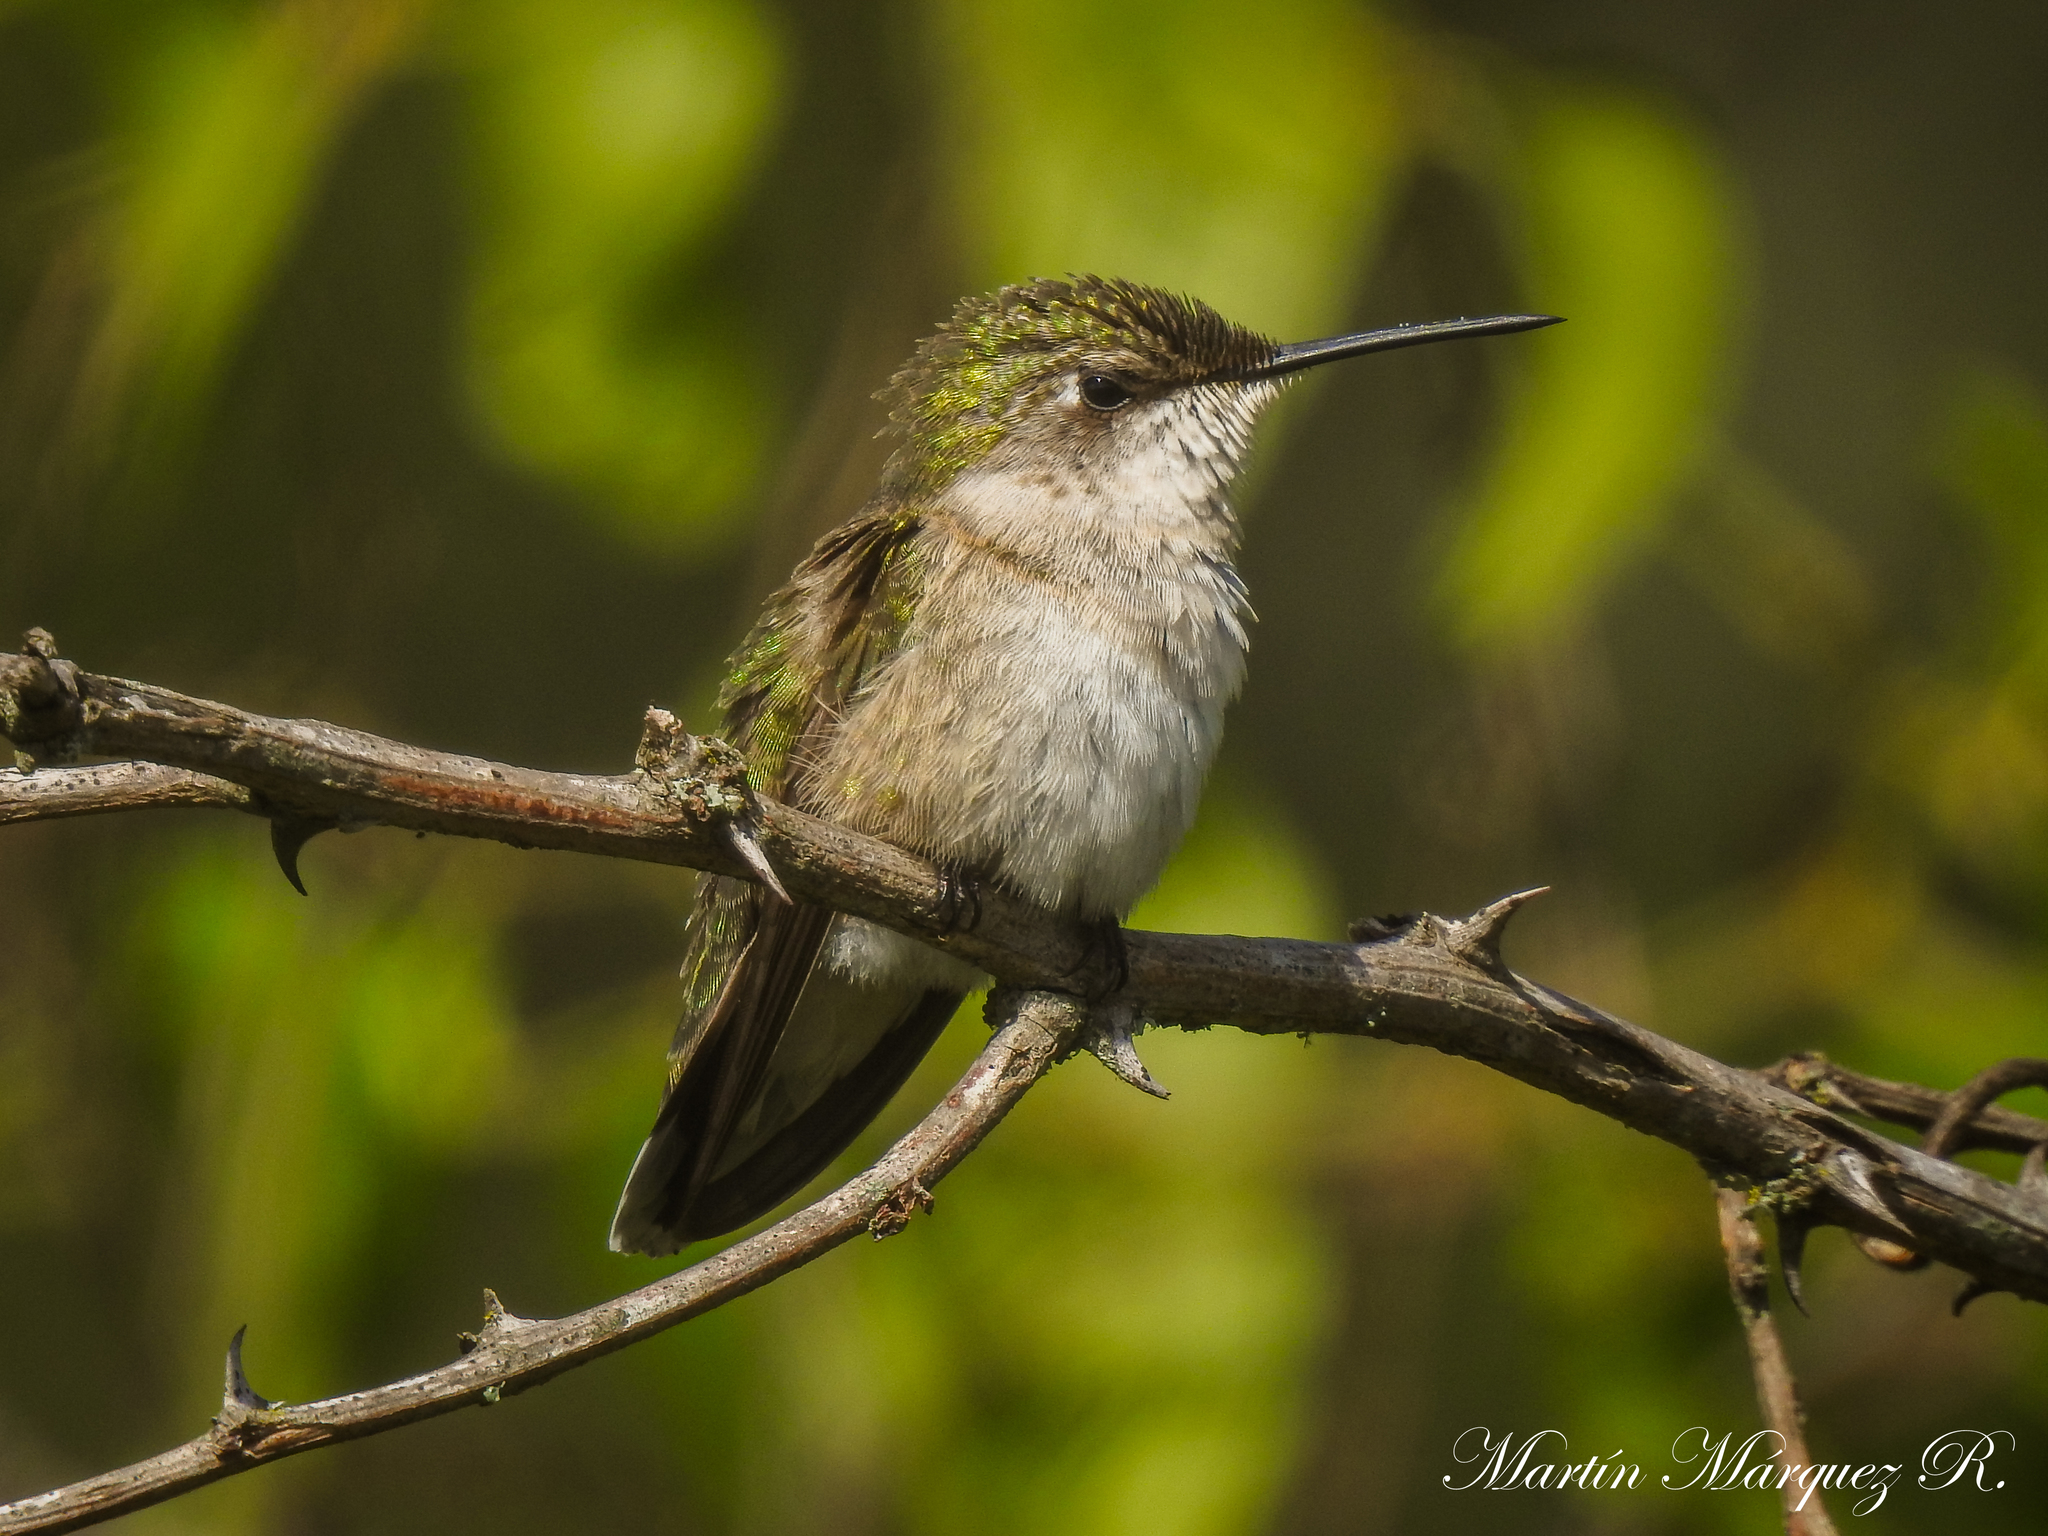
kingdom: Animalia
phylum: Chordata
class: Aves
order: Apodiformes
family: Trochilidae
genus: Archilochus
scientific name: Archilochus colubris
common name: Ruby-throated hummingbird
